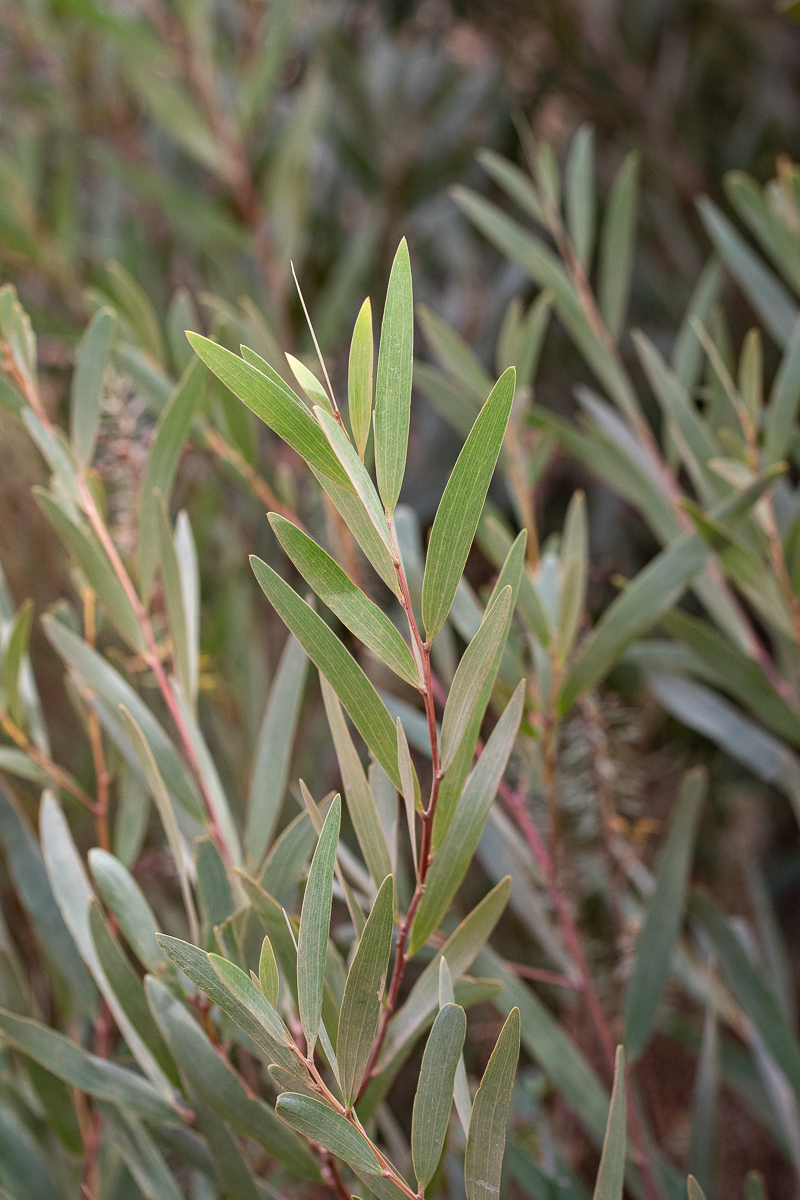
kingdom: Plantae
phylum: Tracheophyta
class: Magnoliopsida
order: Fabales
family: Fabaceae
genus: Acacia
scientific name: Acacia longifolia
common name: Sydney golden wattle
